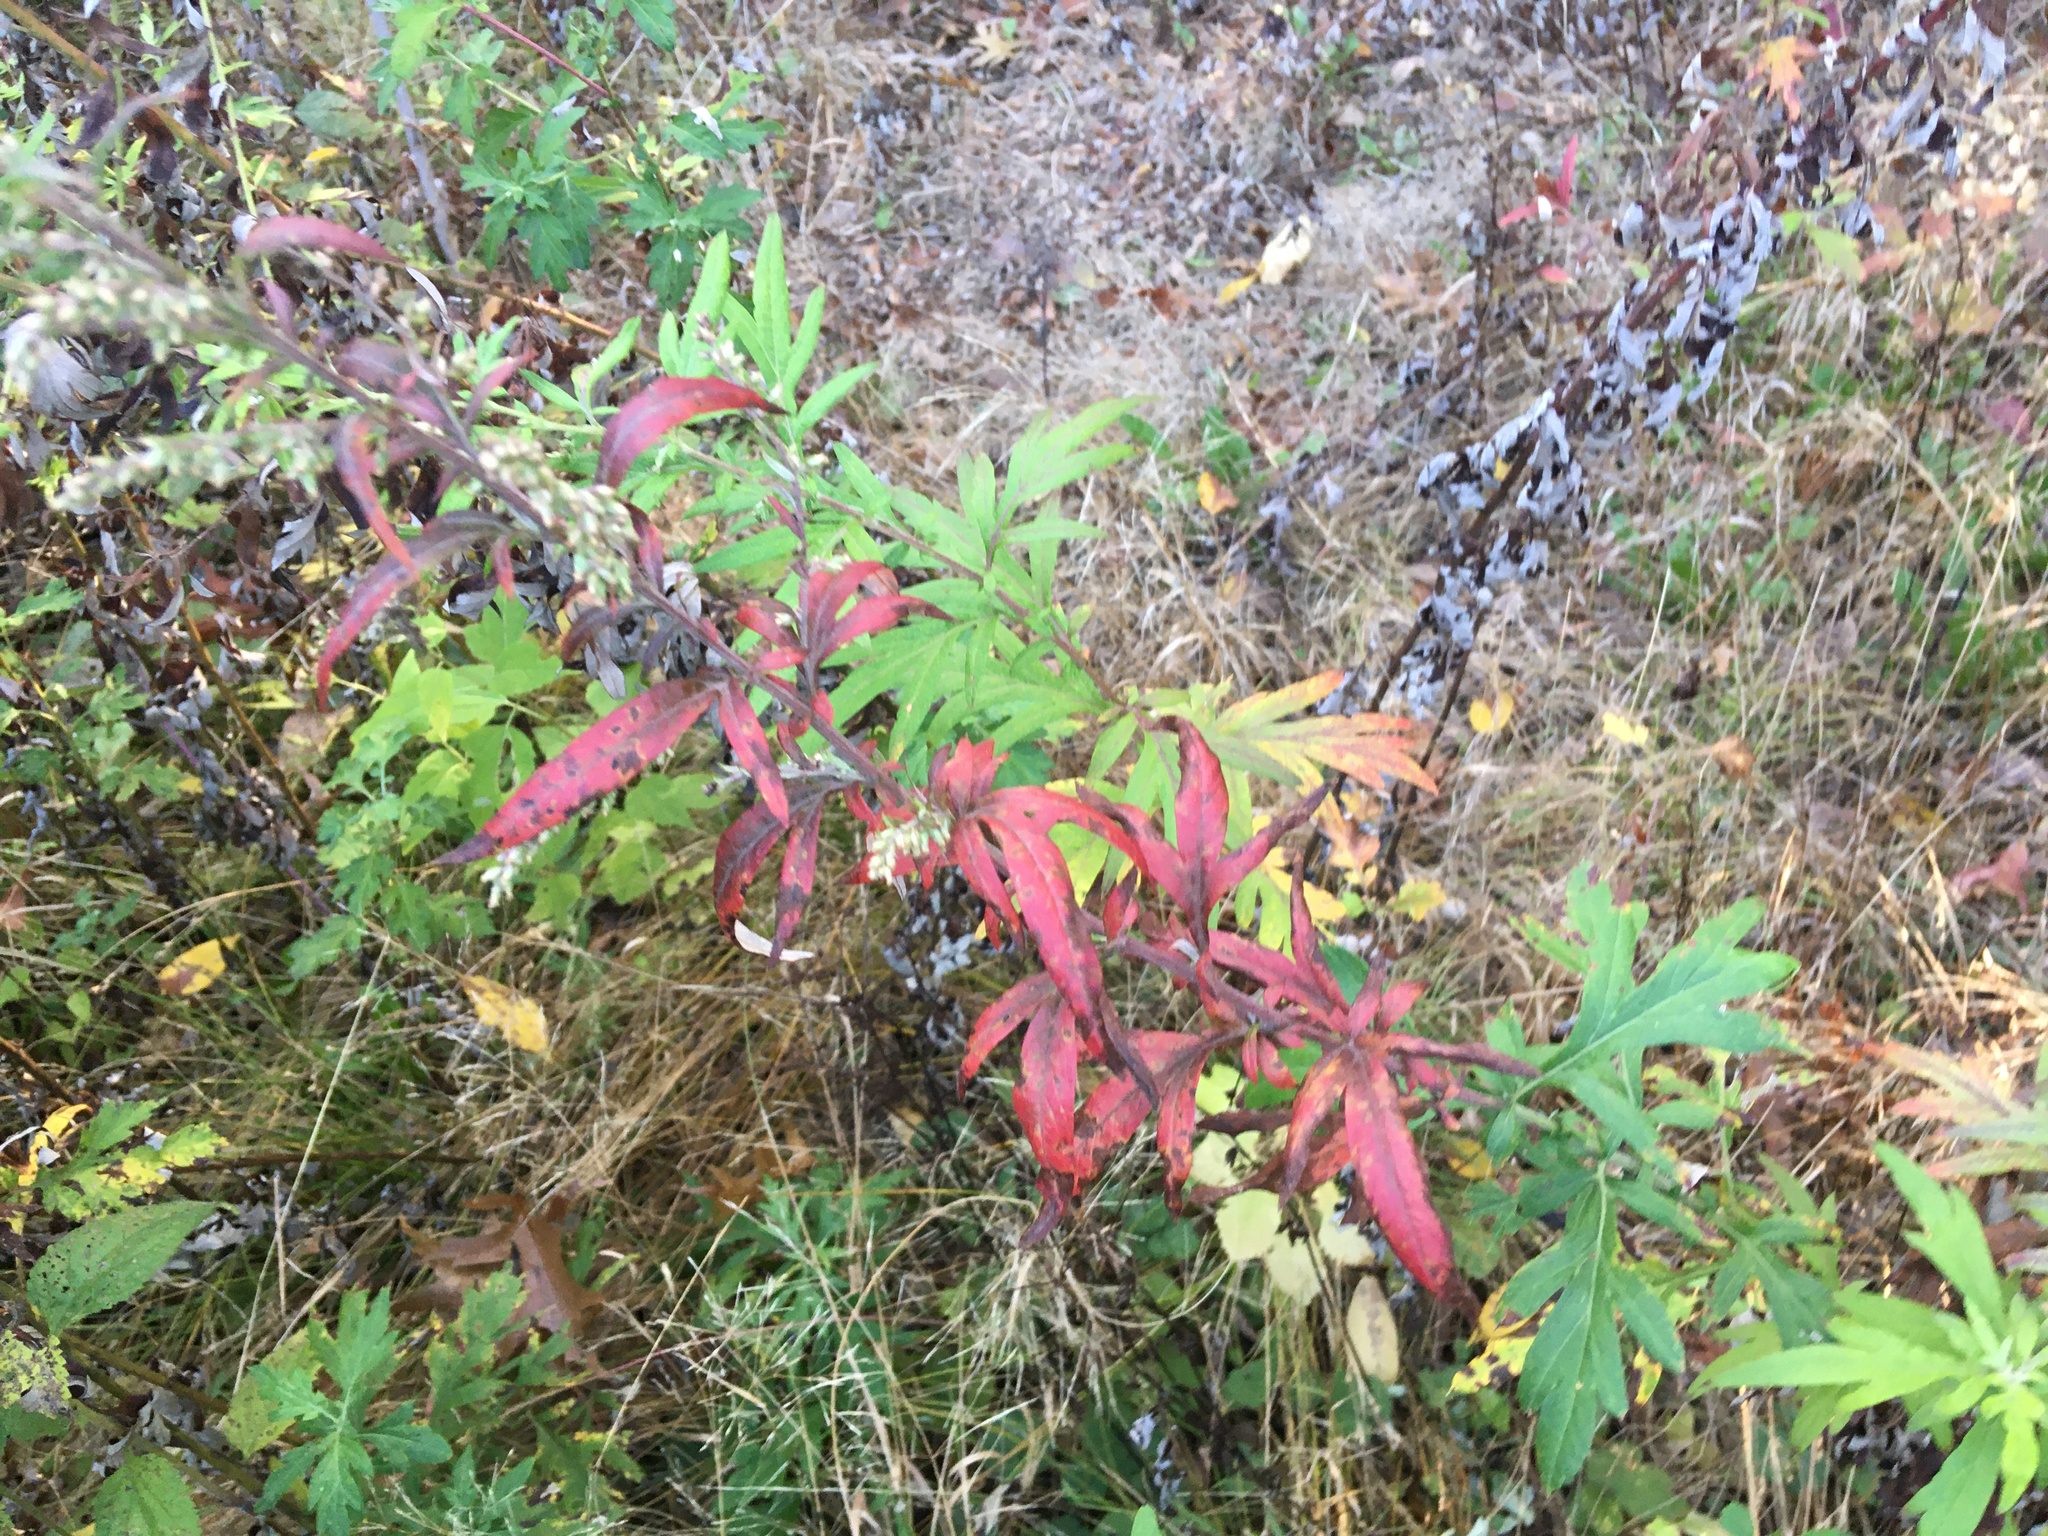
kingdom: Plantae
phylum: Tracheophyta
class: Magnoliopsida
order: Asterales
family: Asteraceae
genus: Artemisia
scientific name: Artemisia vulgaris
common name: Mugwort
